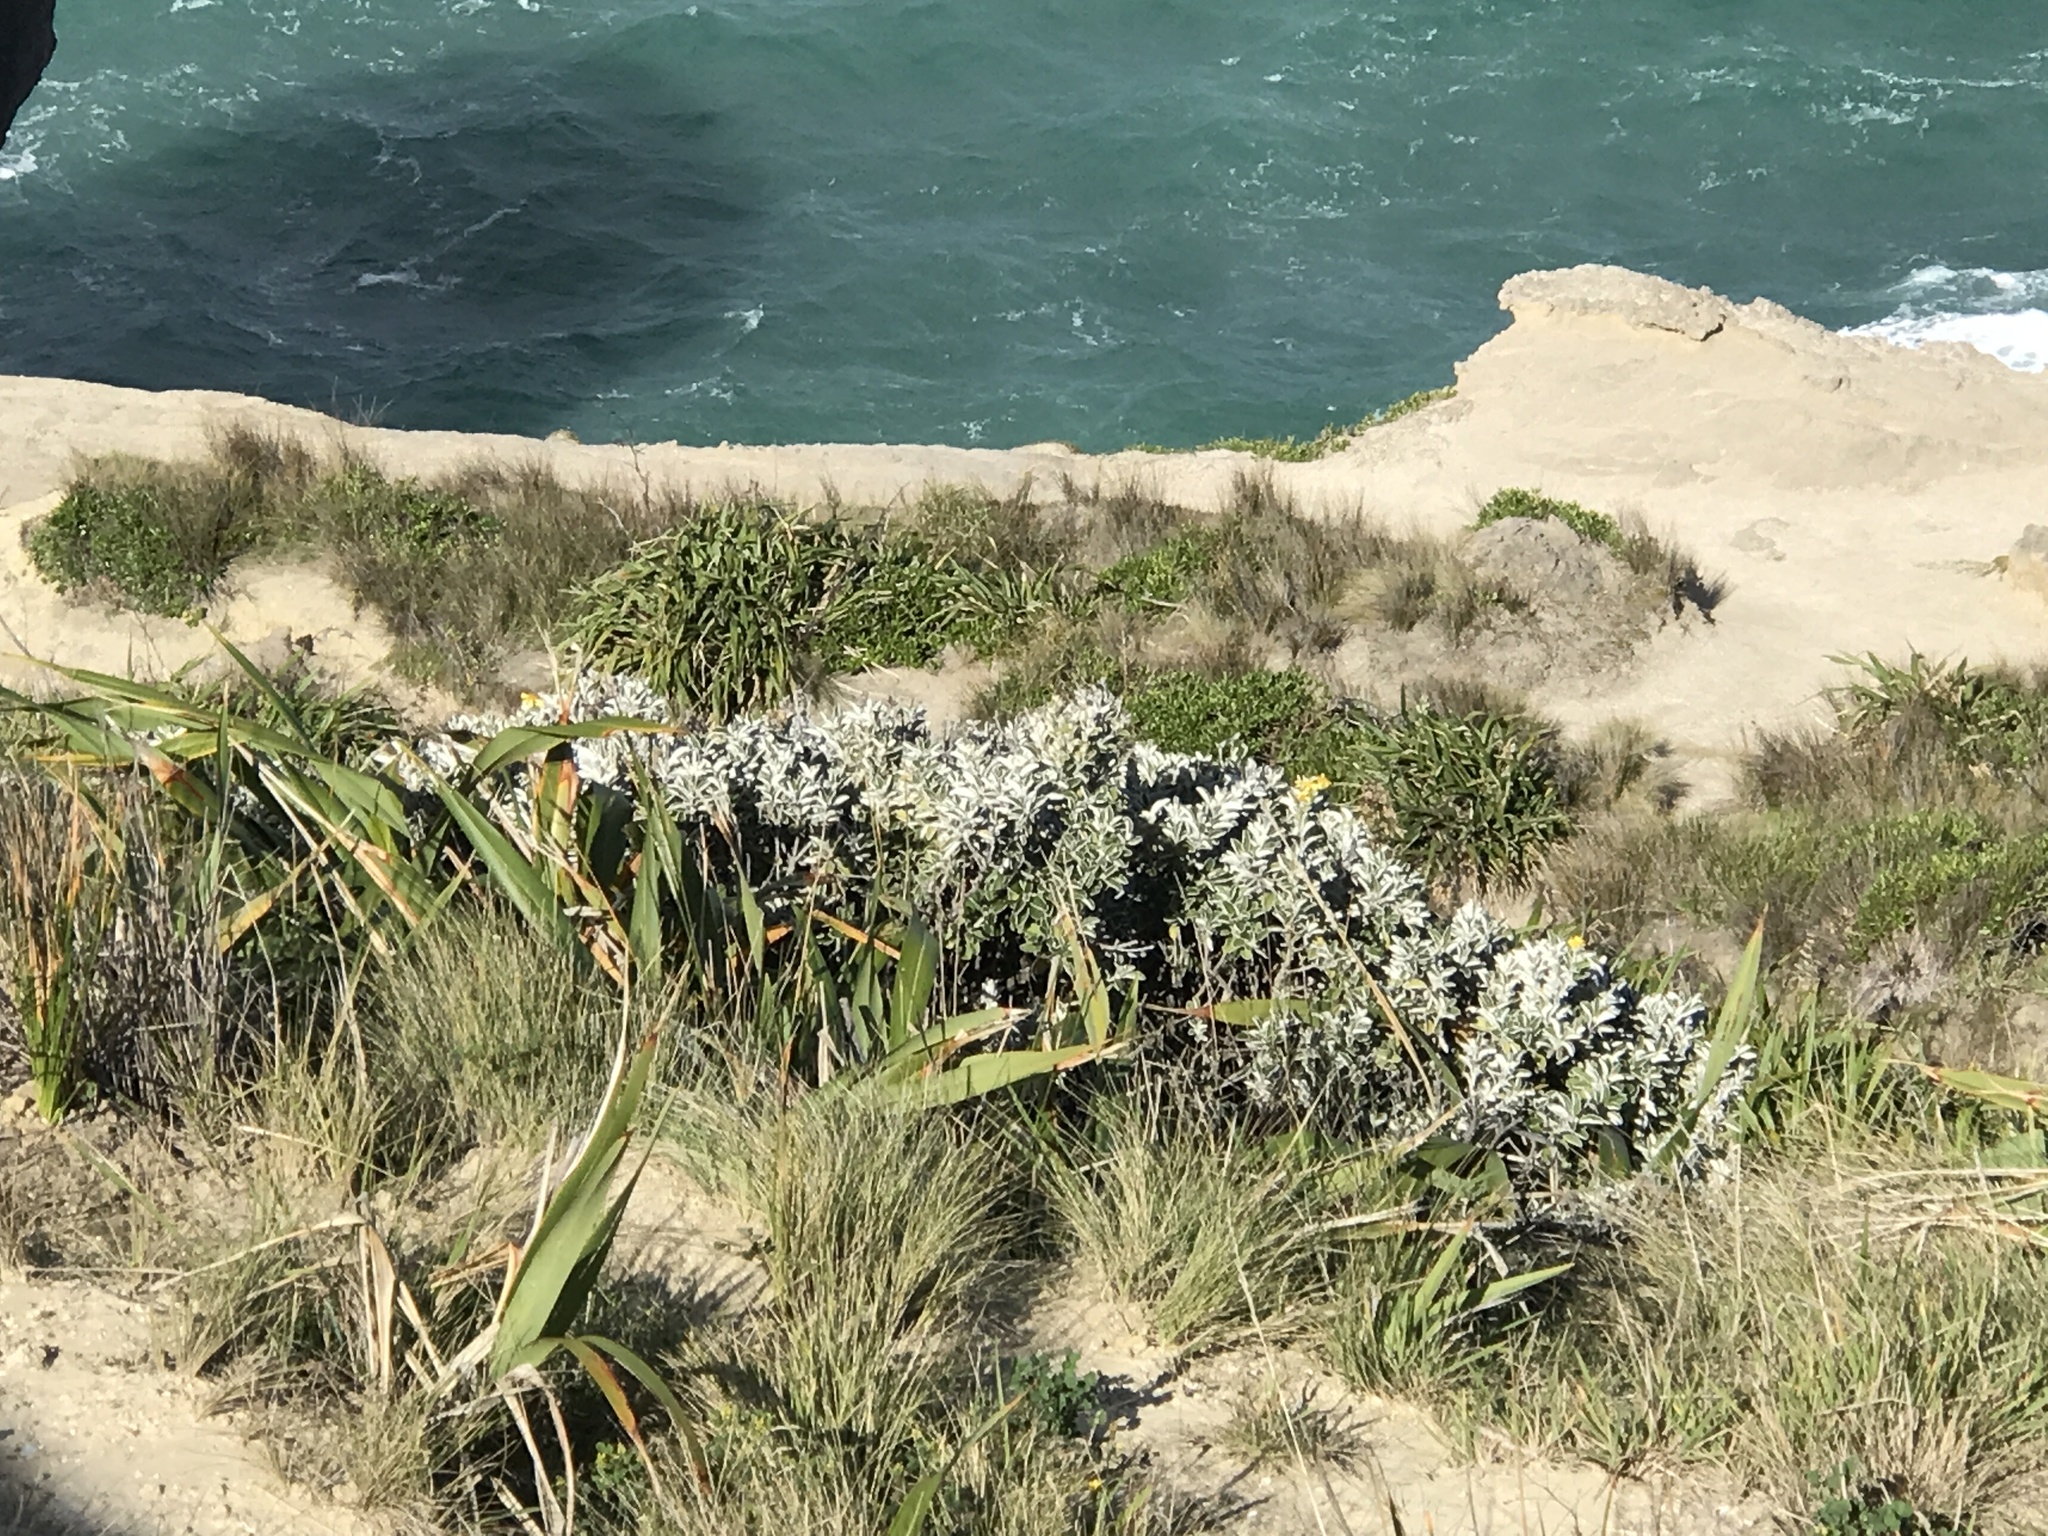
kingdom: Plantae
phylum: Tracheophyta
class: Magnoliopsida
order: Asterales
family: Asteraceae
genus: Brachyglottis
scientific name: Brachyglottis compacta
